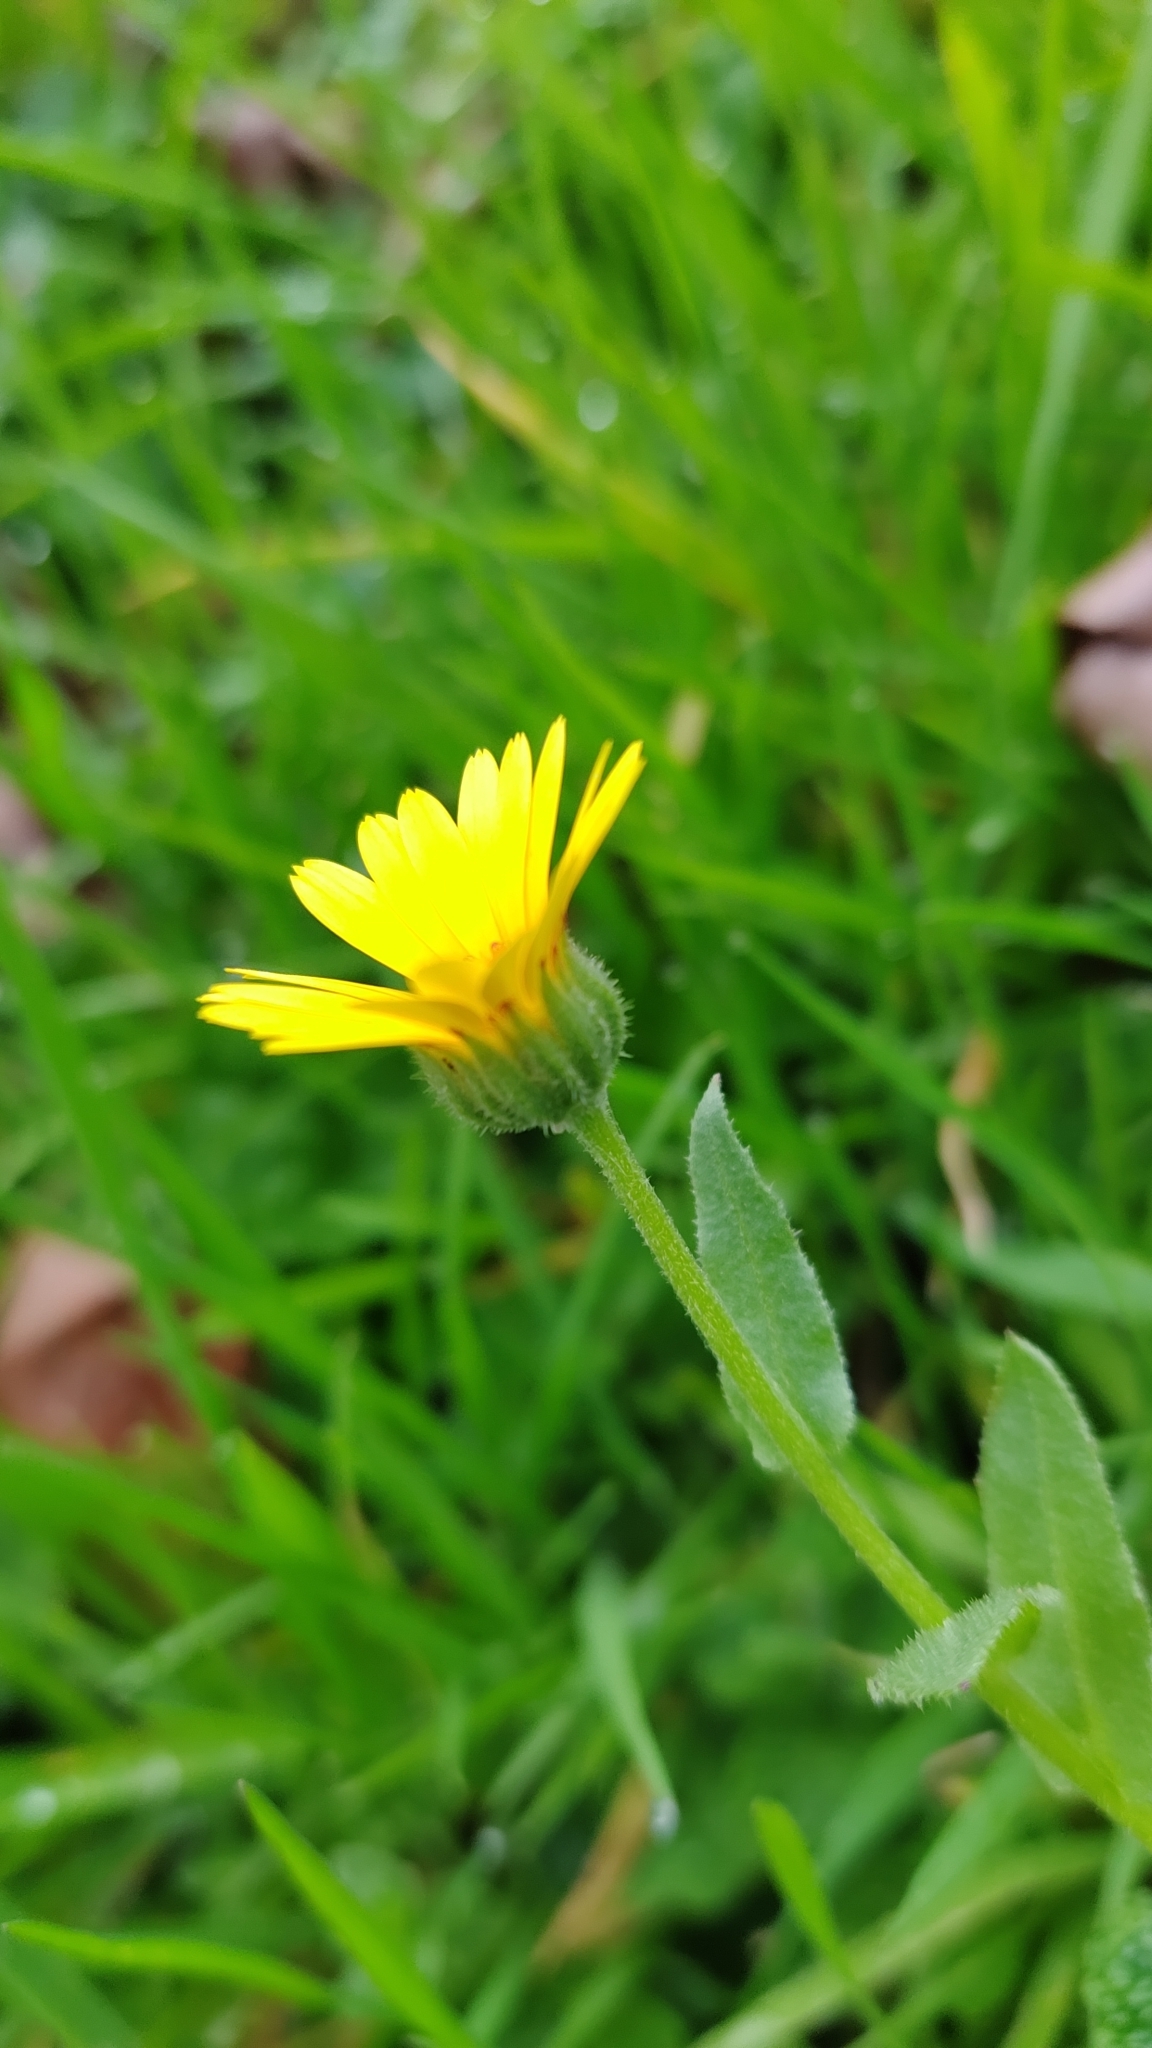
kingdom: Plantae
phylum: Tracheophyta
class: Magnoliopsida
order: Asterales
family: Asteraceae
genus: Calendula
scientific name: Calendula arvensis
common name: Field marigold
